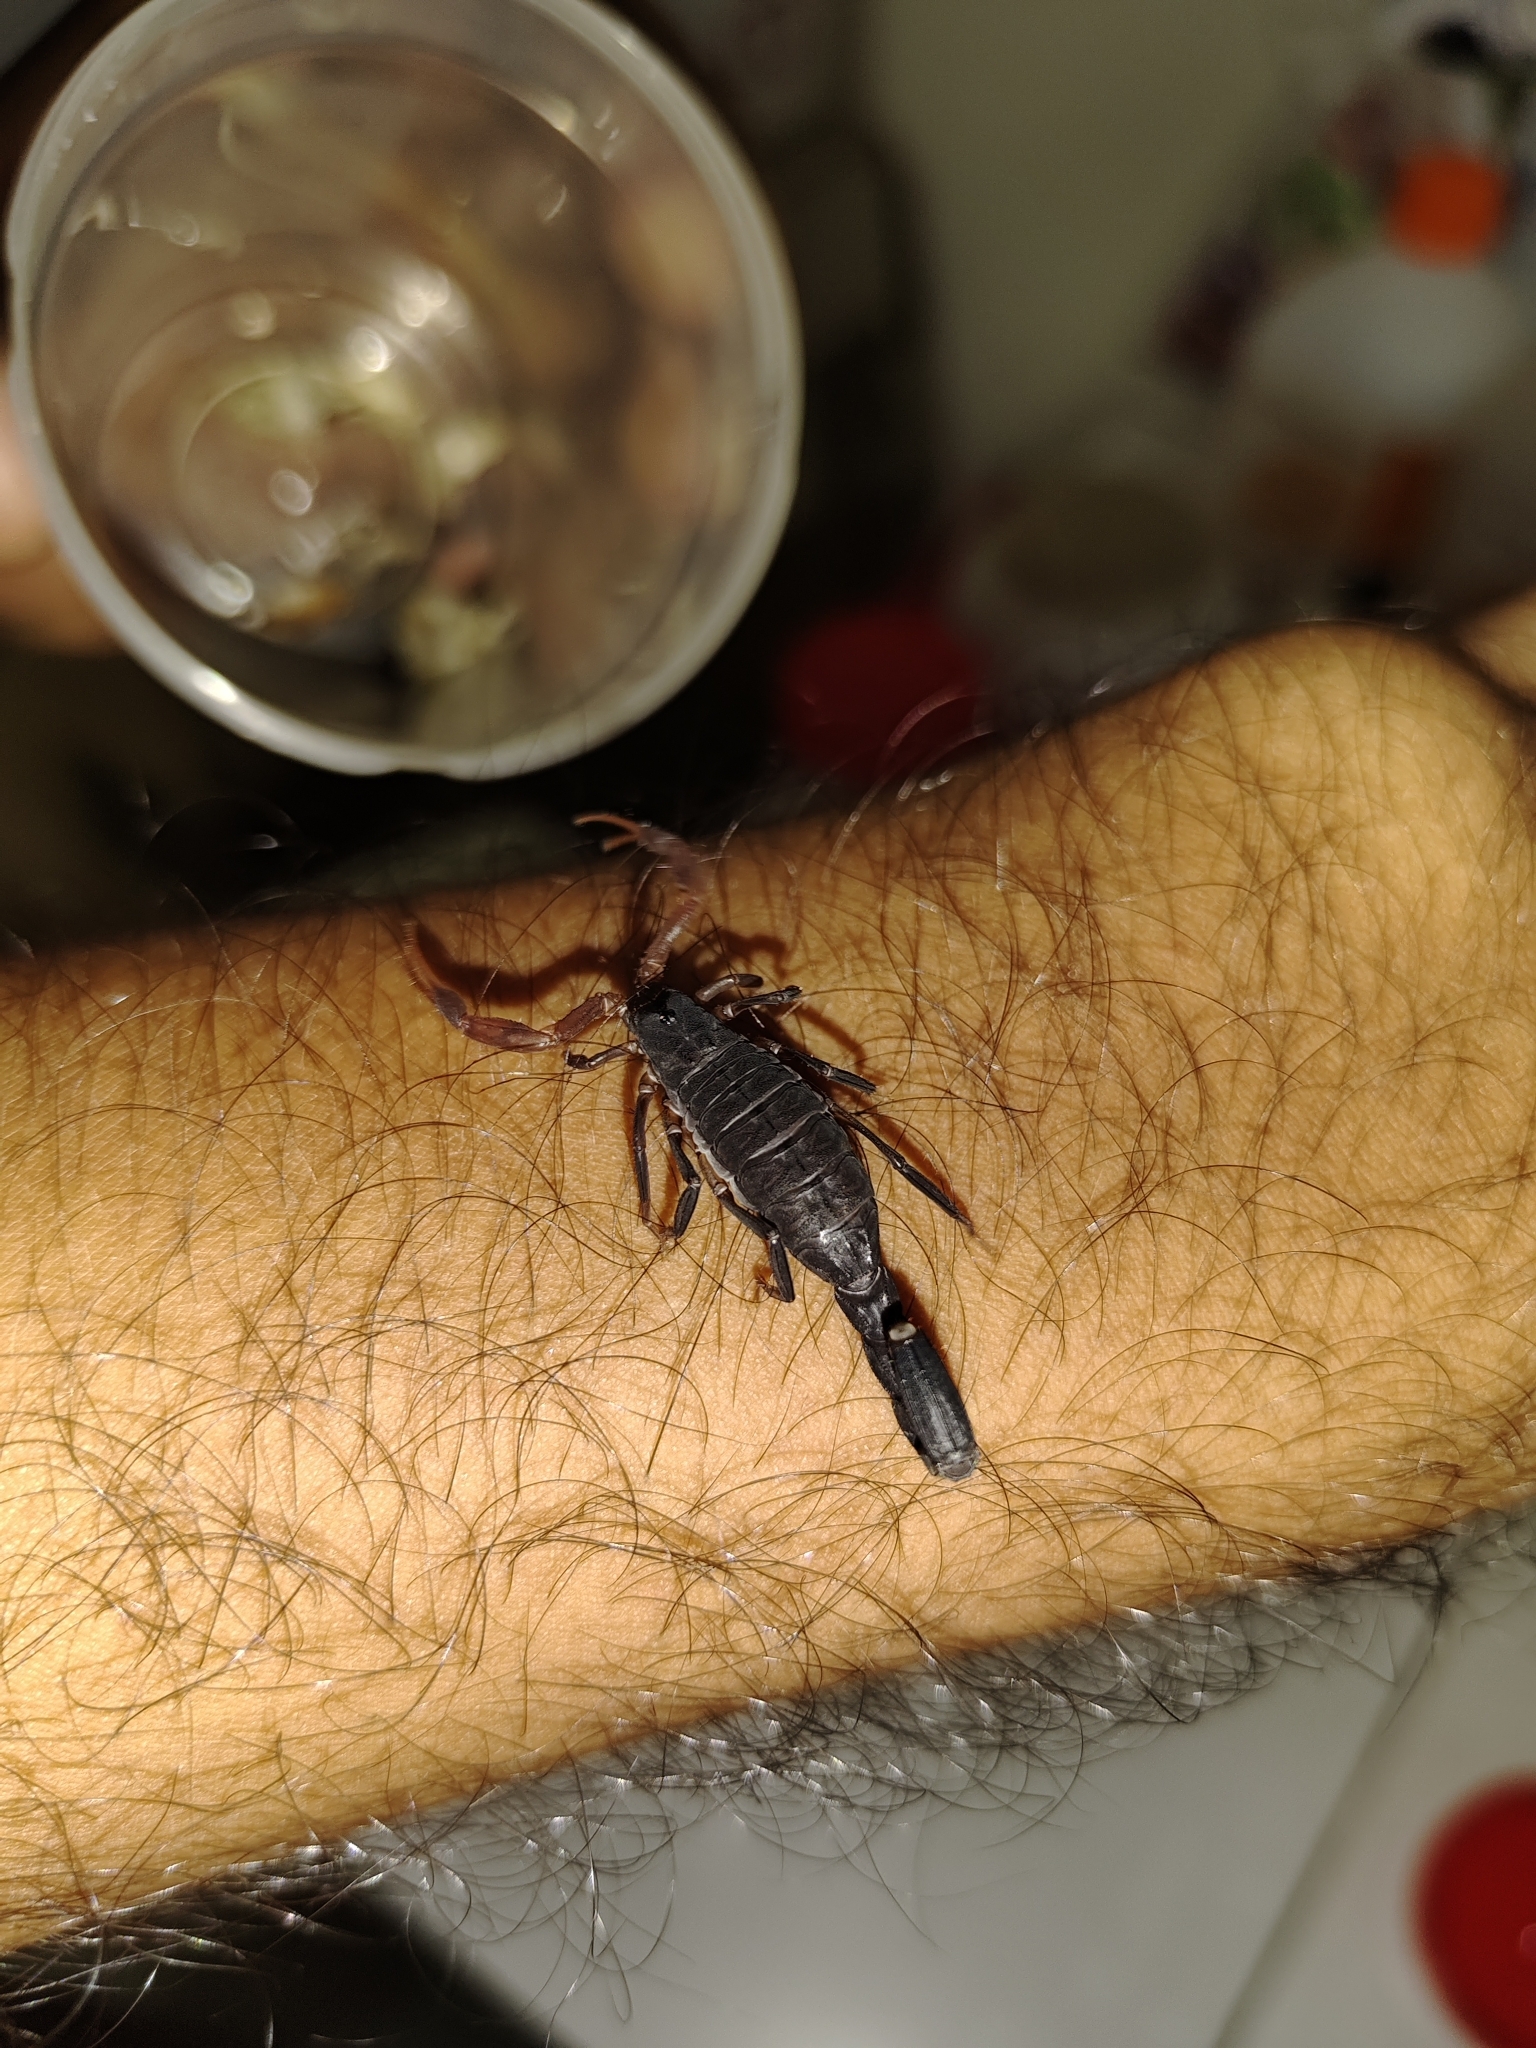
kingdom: Animalia
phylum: Arthropoda
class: Arachnida
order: Scorpiones
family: Buthidae
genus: Janalychas
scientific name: Janalychas tricarinatus
